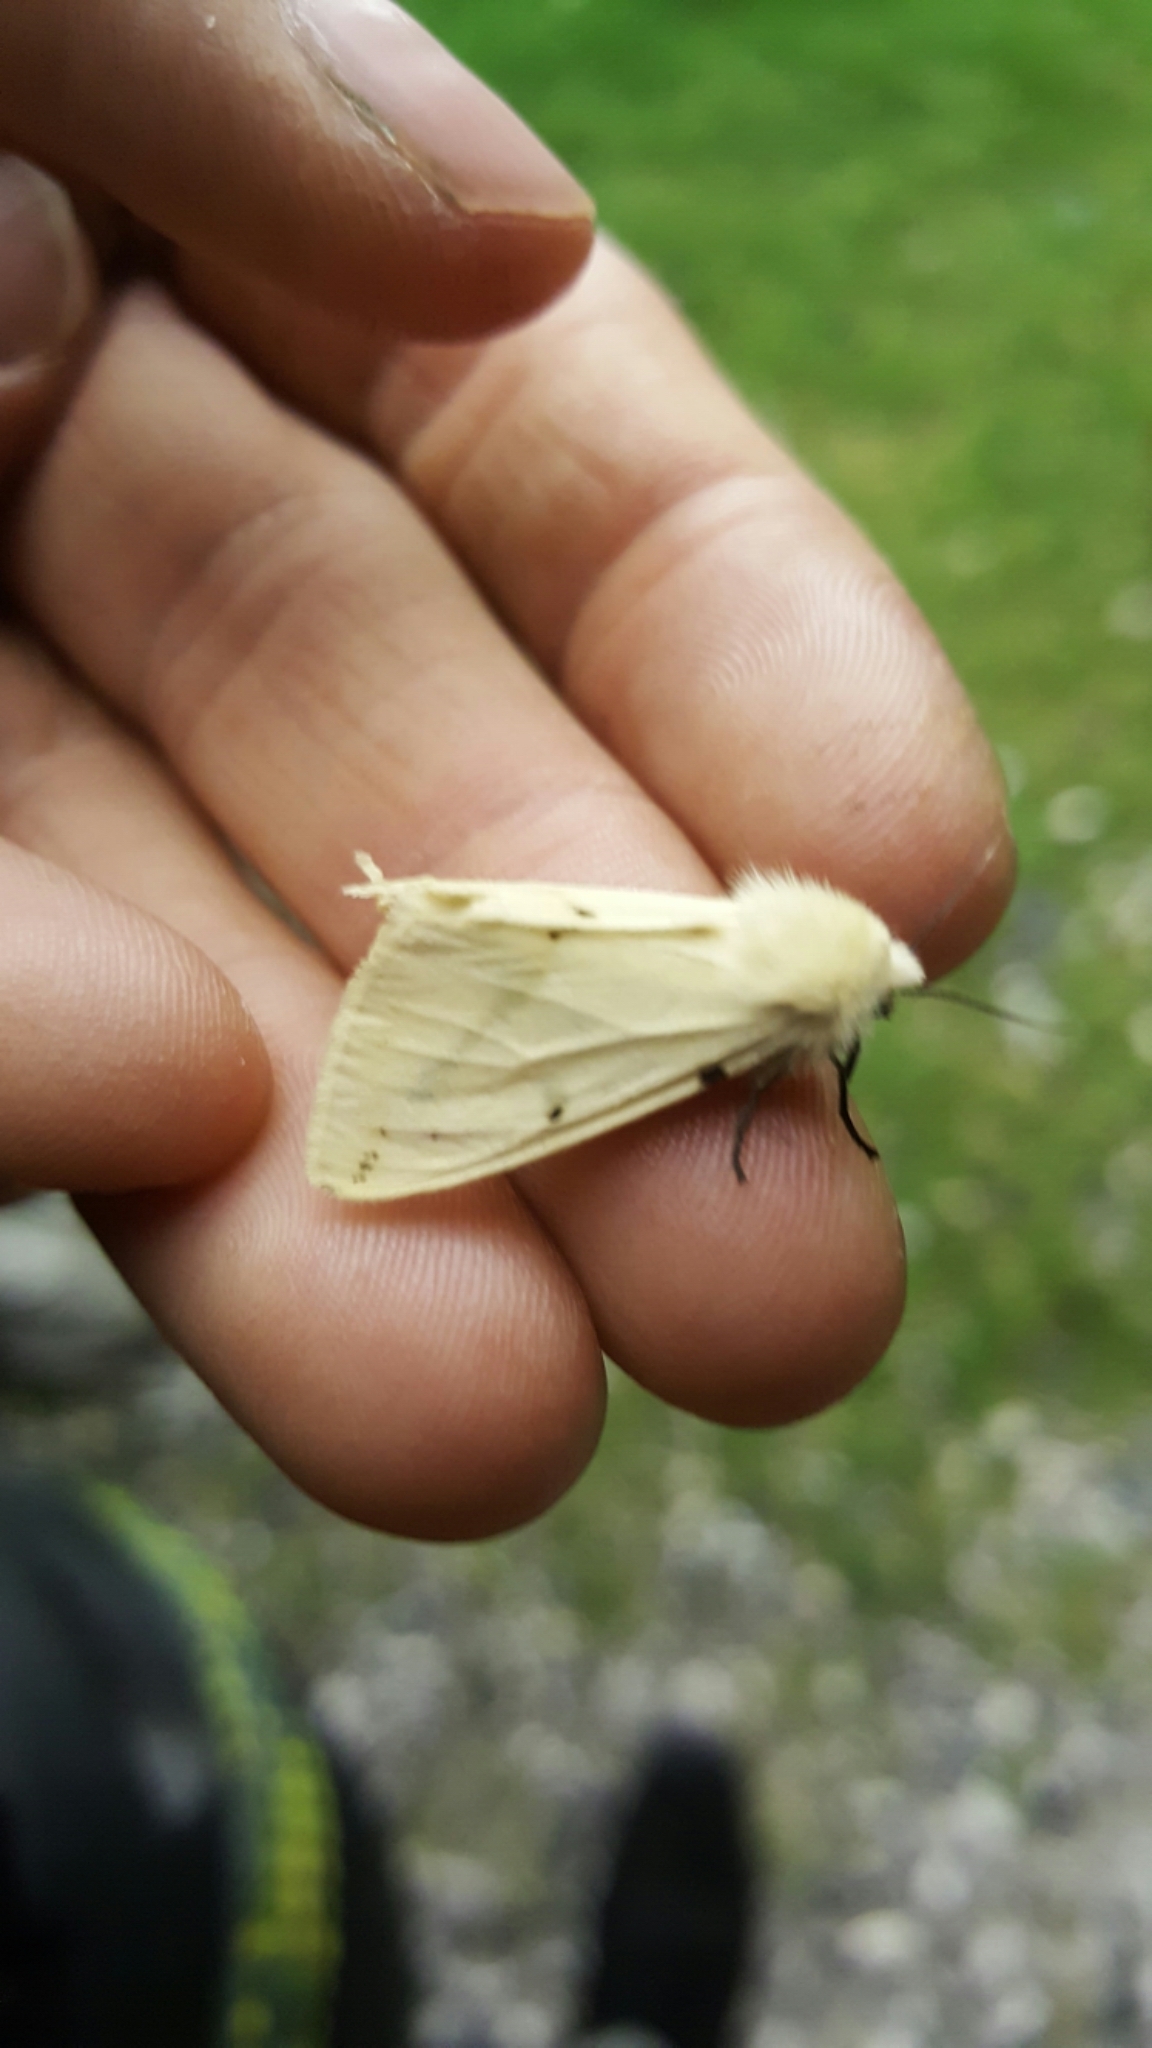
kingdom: Animalia
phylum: Arthropoda
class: Insecta
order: Lepidoptera
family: Erebidae
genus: Spilarctia
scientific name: Spilarctia lutea
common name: Buff ermine
